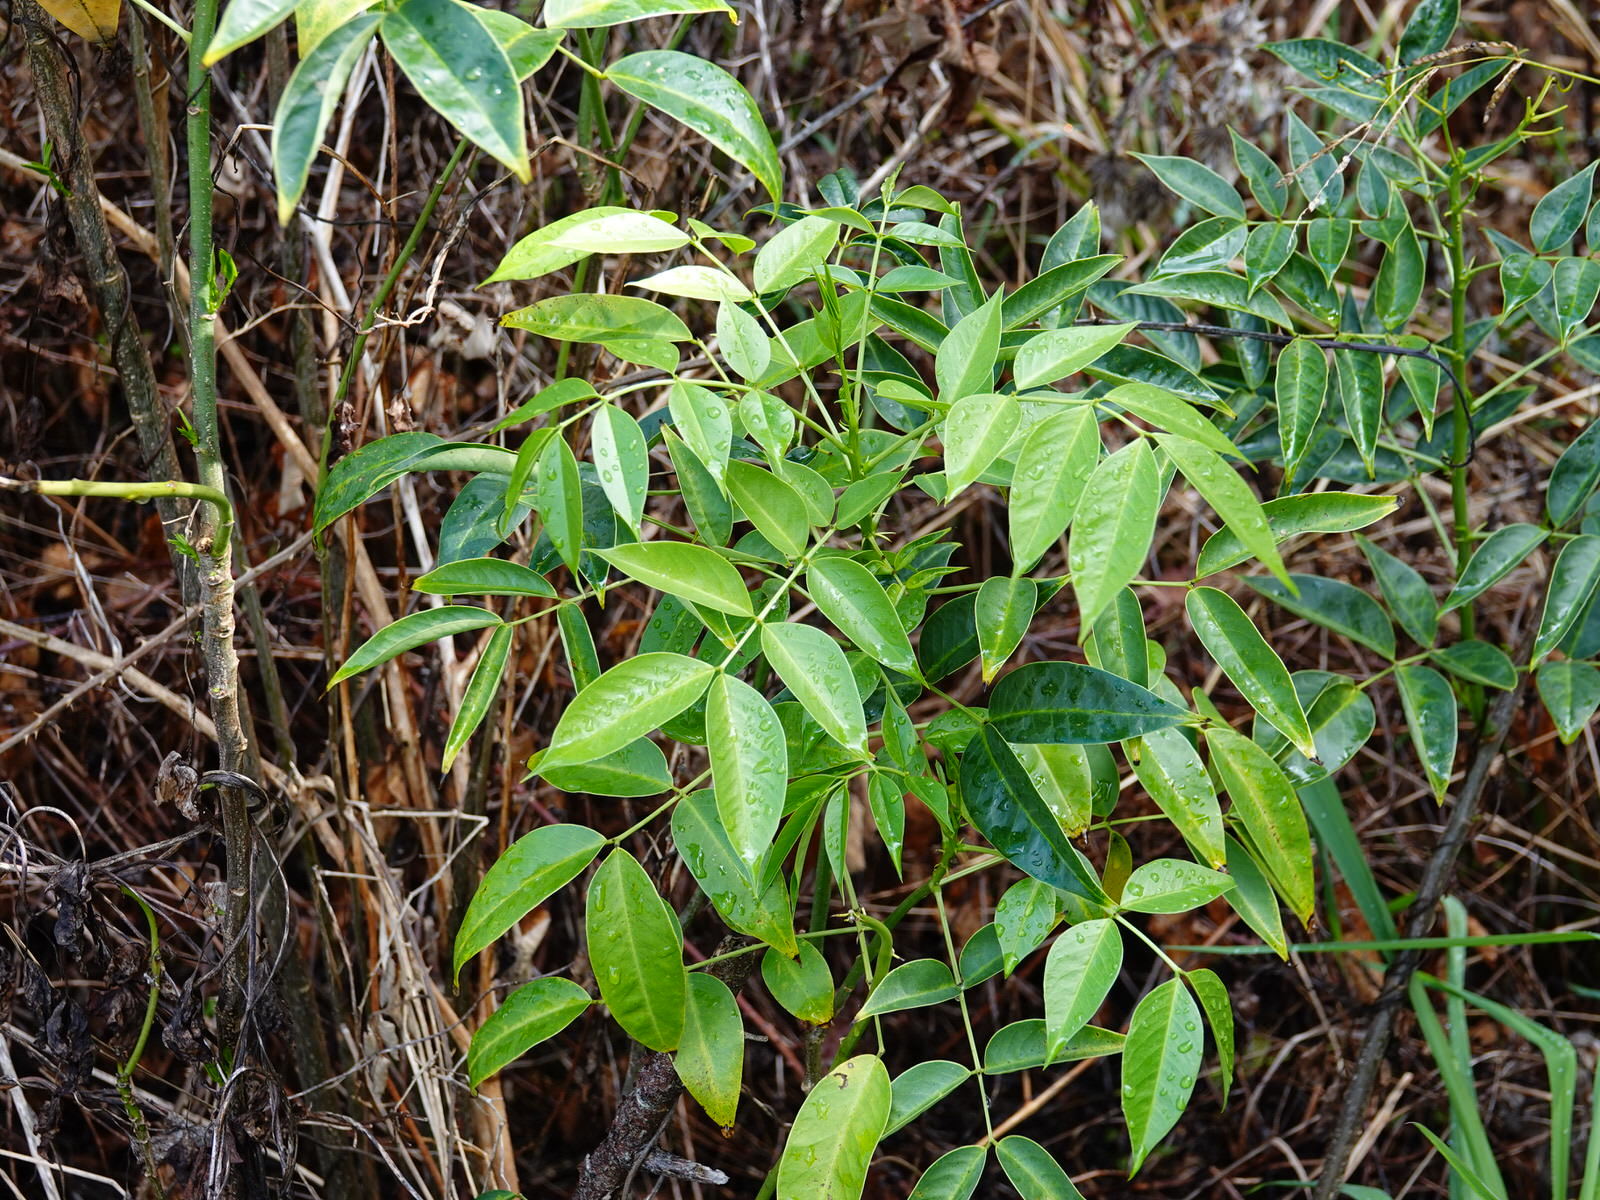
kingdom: Plantae
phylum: Tracheophyta
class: Magnoliopsida
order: Fabales
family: Fabaceae
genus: Senna
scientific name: Senna septemtrionalis
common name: Arsenic bush
